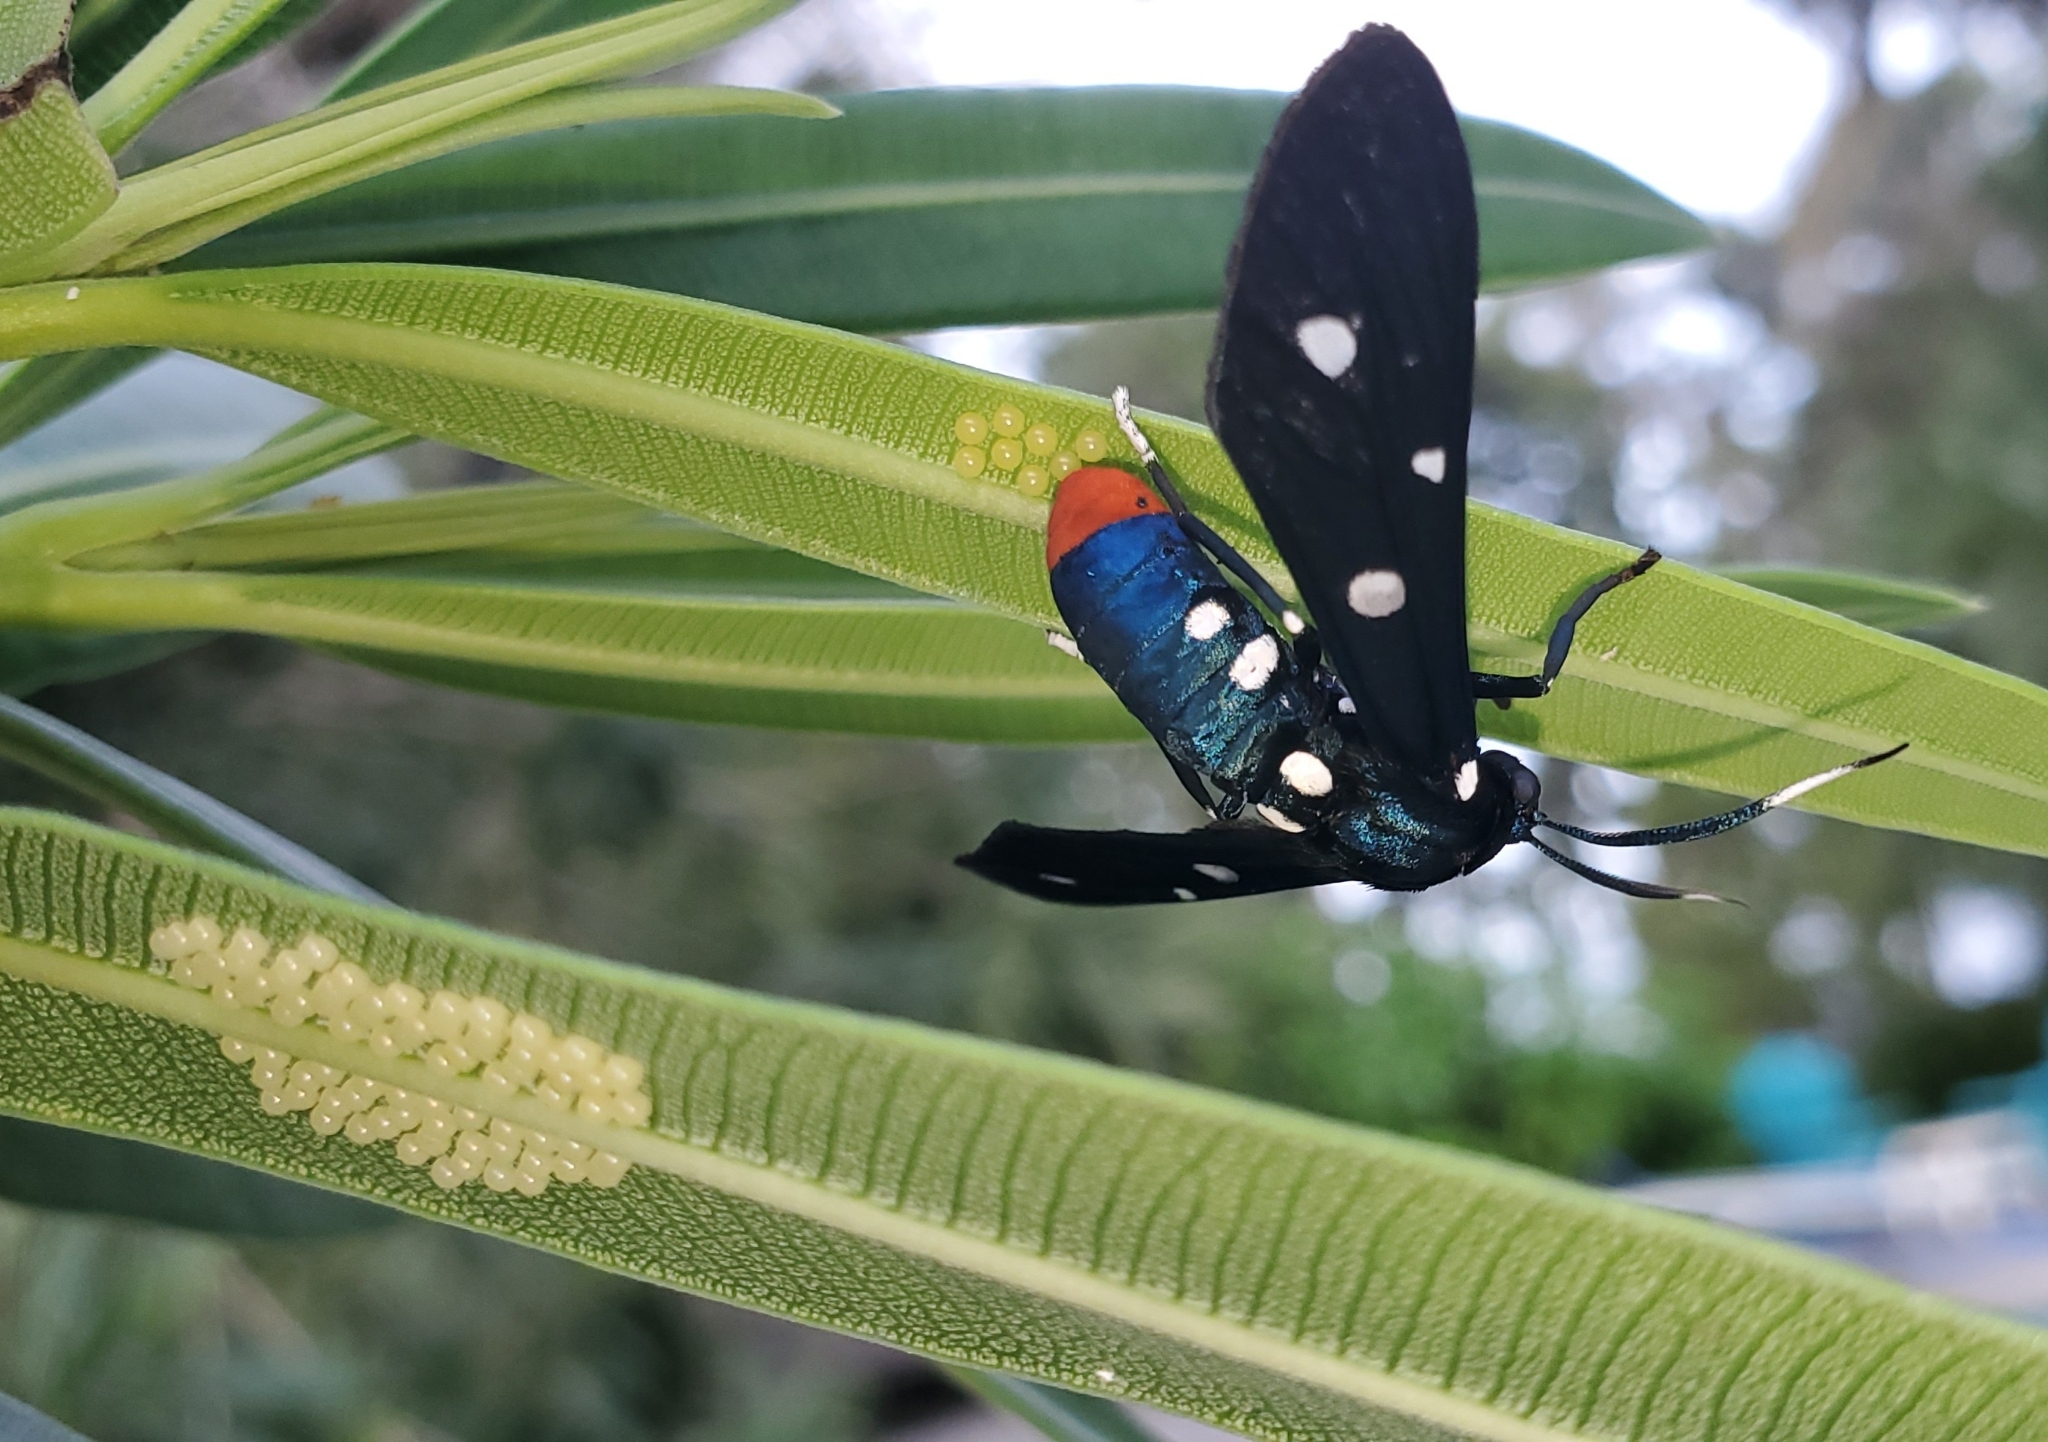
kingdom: Animalia
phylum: Arthropoda
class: Insecta
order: Lepidoptera
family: Erebidae
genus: Syntomeida
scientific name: Syntomeida epilais
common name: Polka-dot wasp moth
